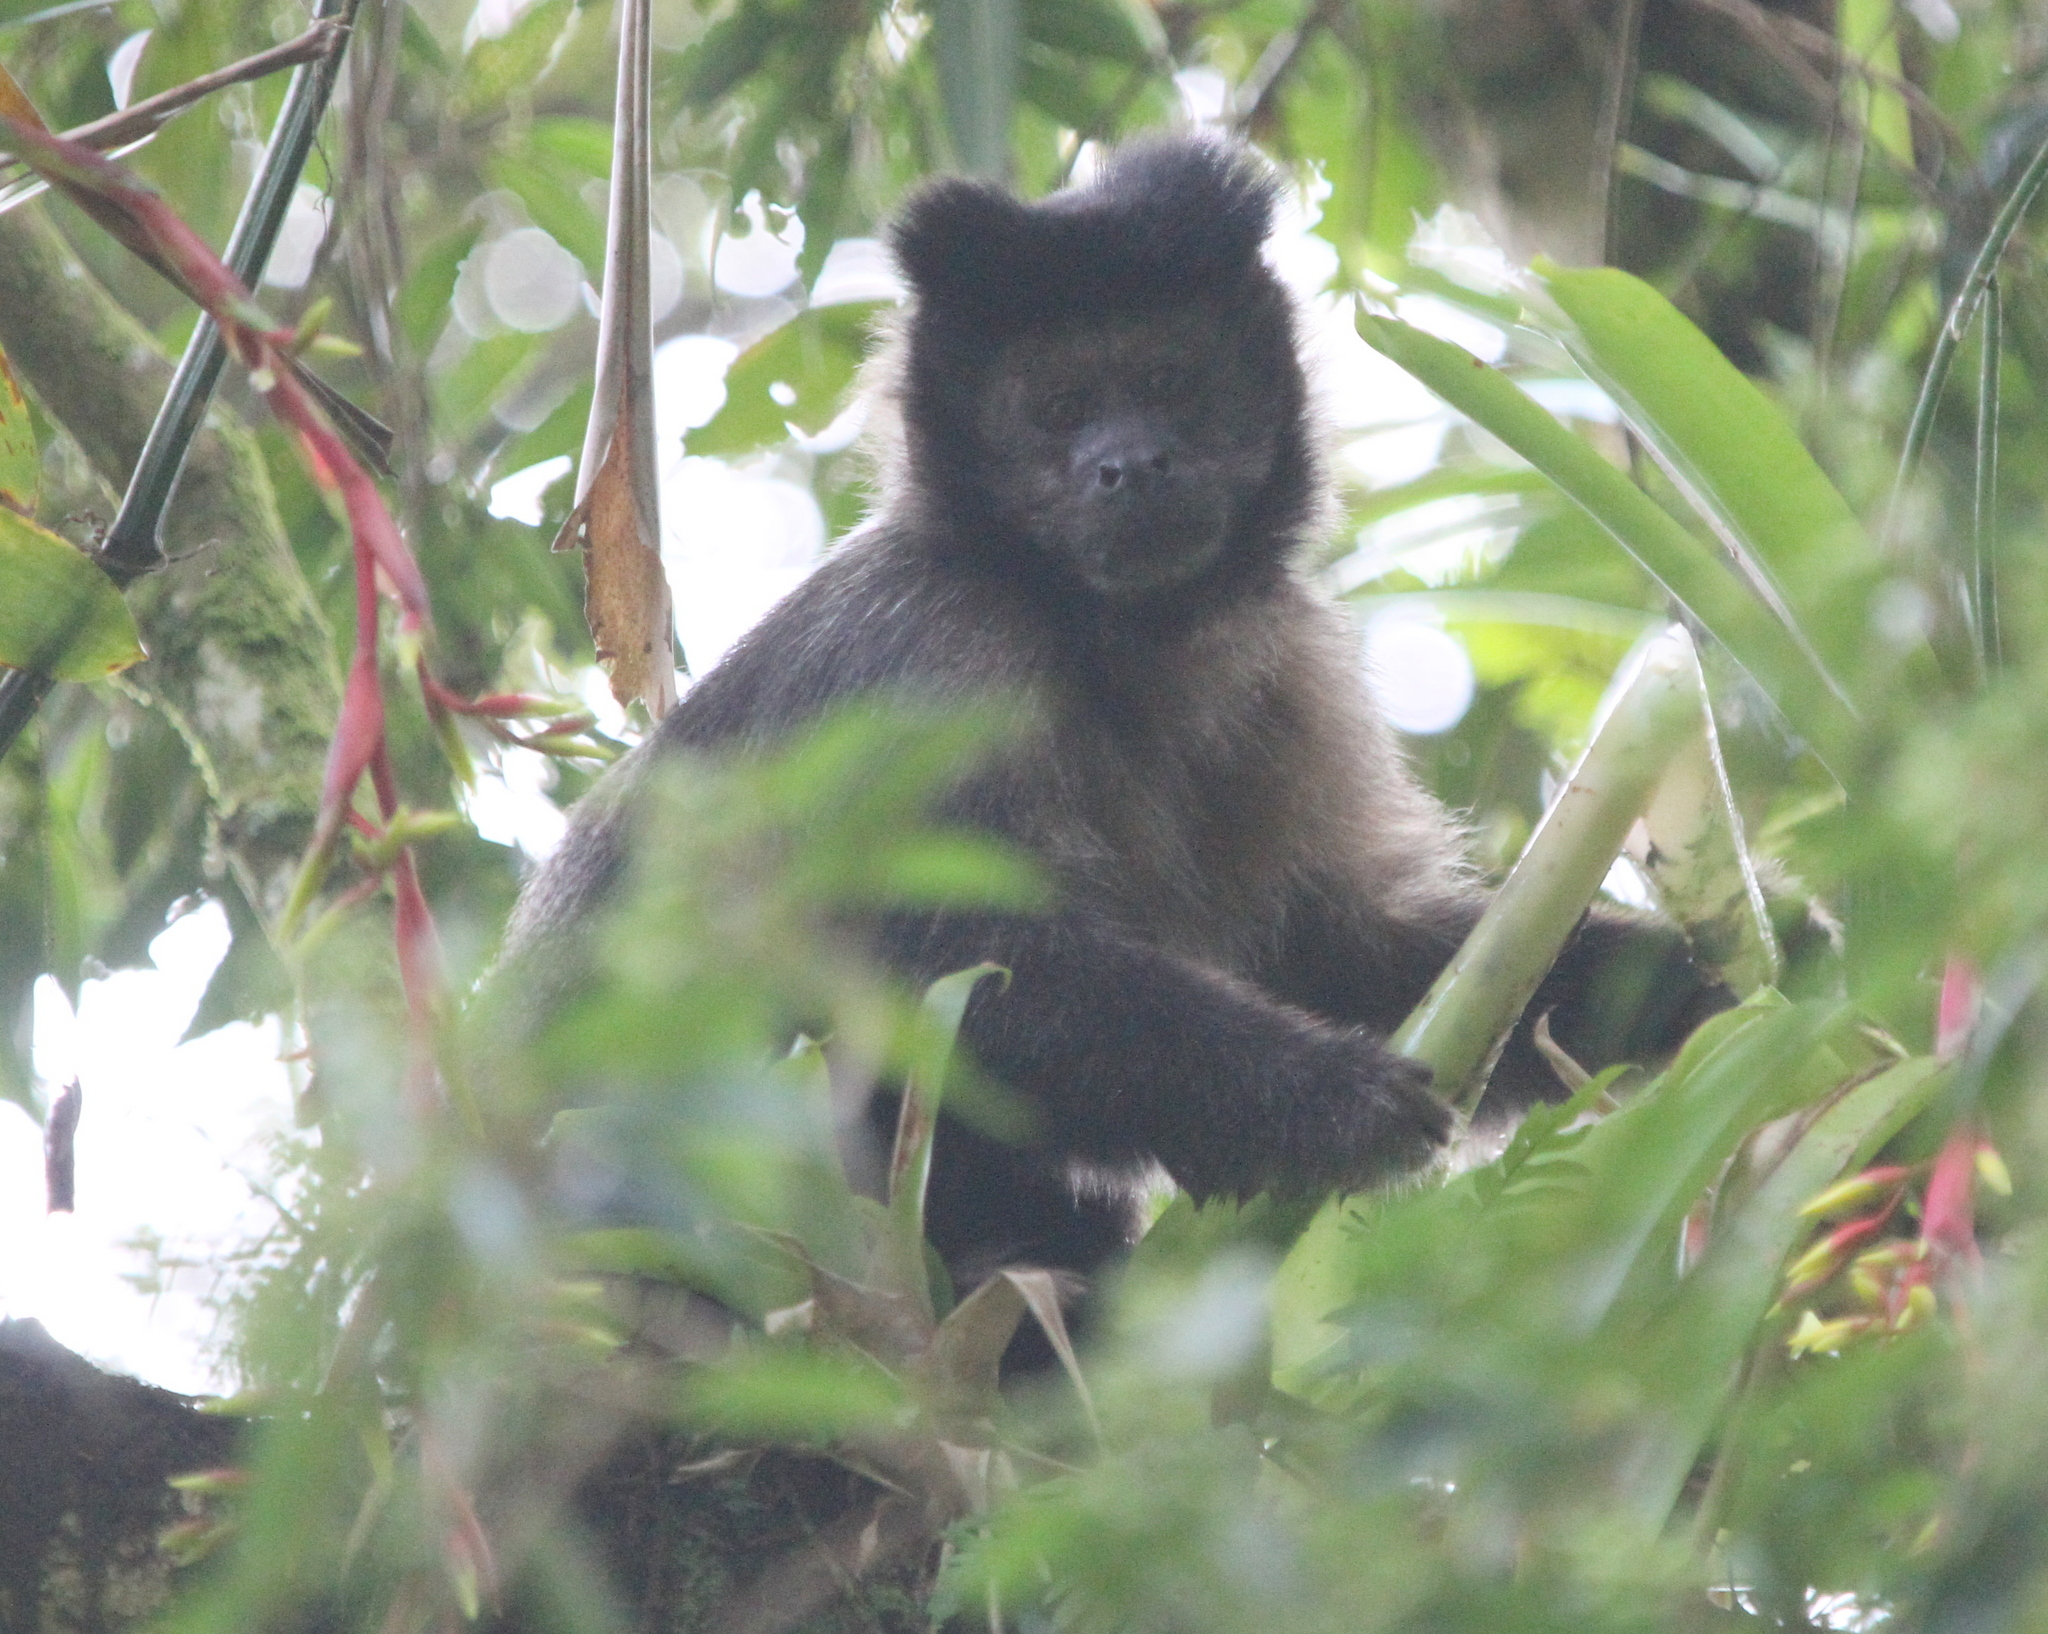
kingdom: Animalia
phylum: Chordata
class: Mammalia
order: Primates
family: Cebidae
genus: Sapajus
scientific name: Sapajus nigritus
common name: Black capuchin
